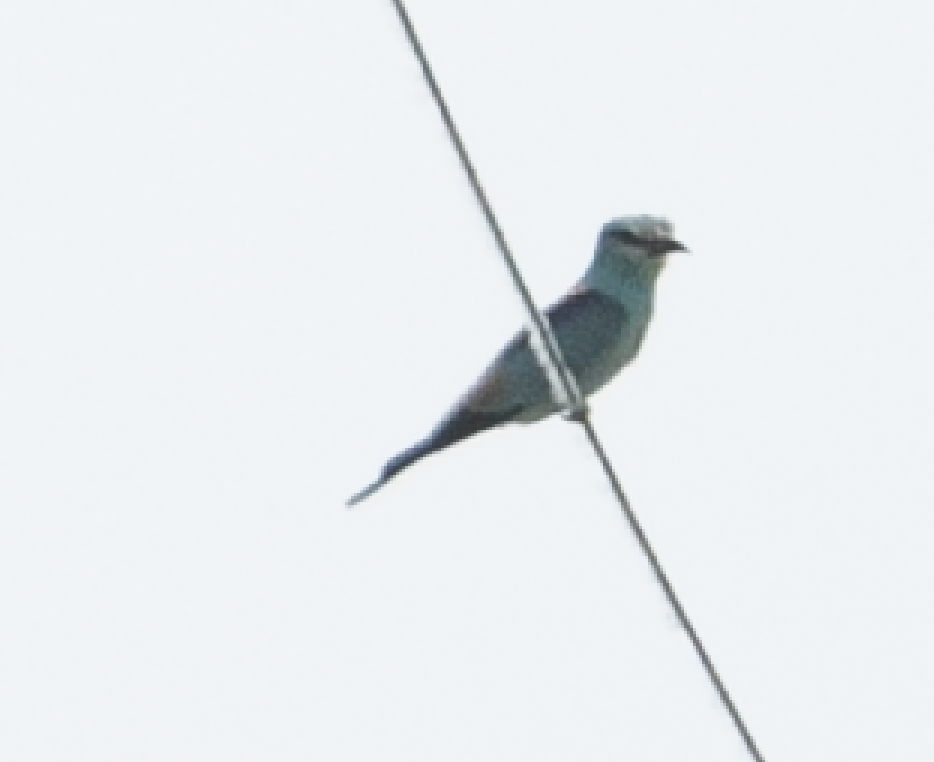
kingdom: Animalia
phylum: Chordata
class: Aves
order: Coraciiformes
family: Coraciidae
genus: Coracias
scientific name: Coracias garrulus
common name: European roller
